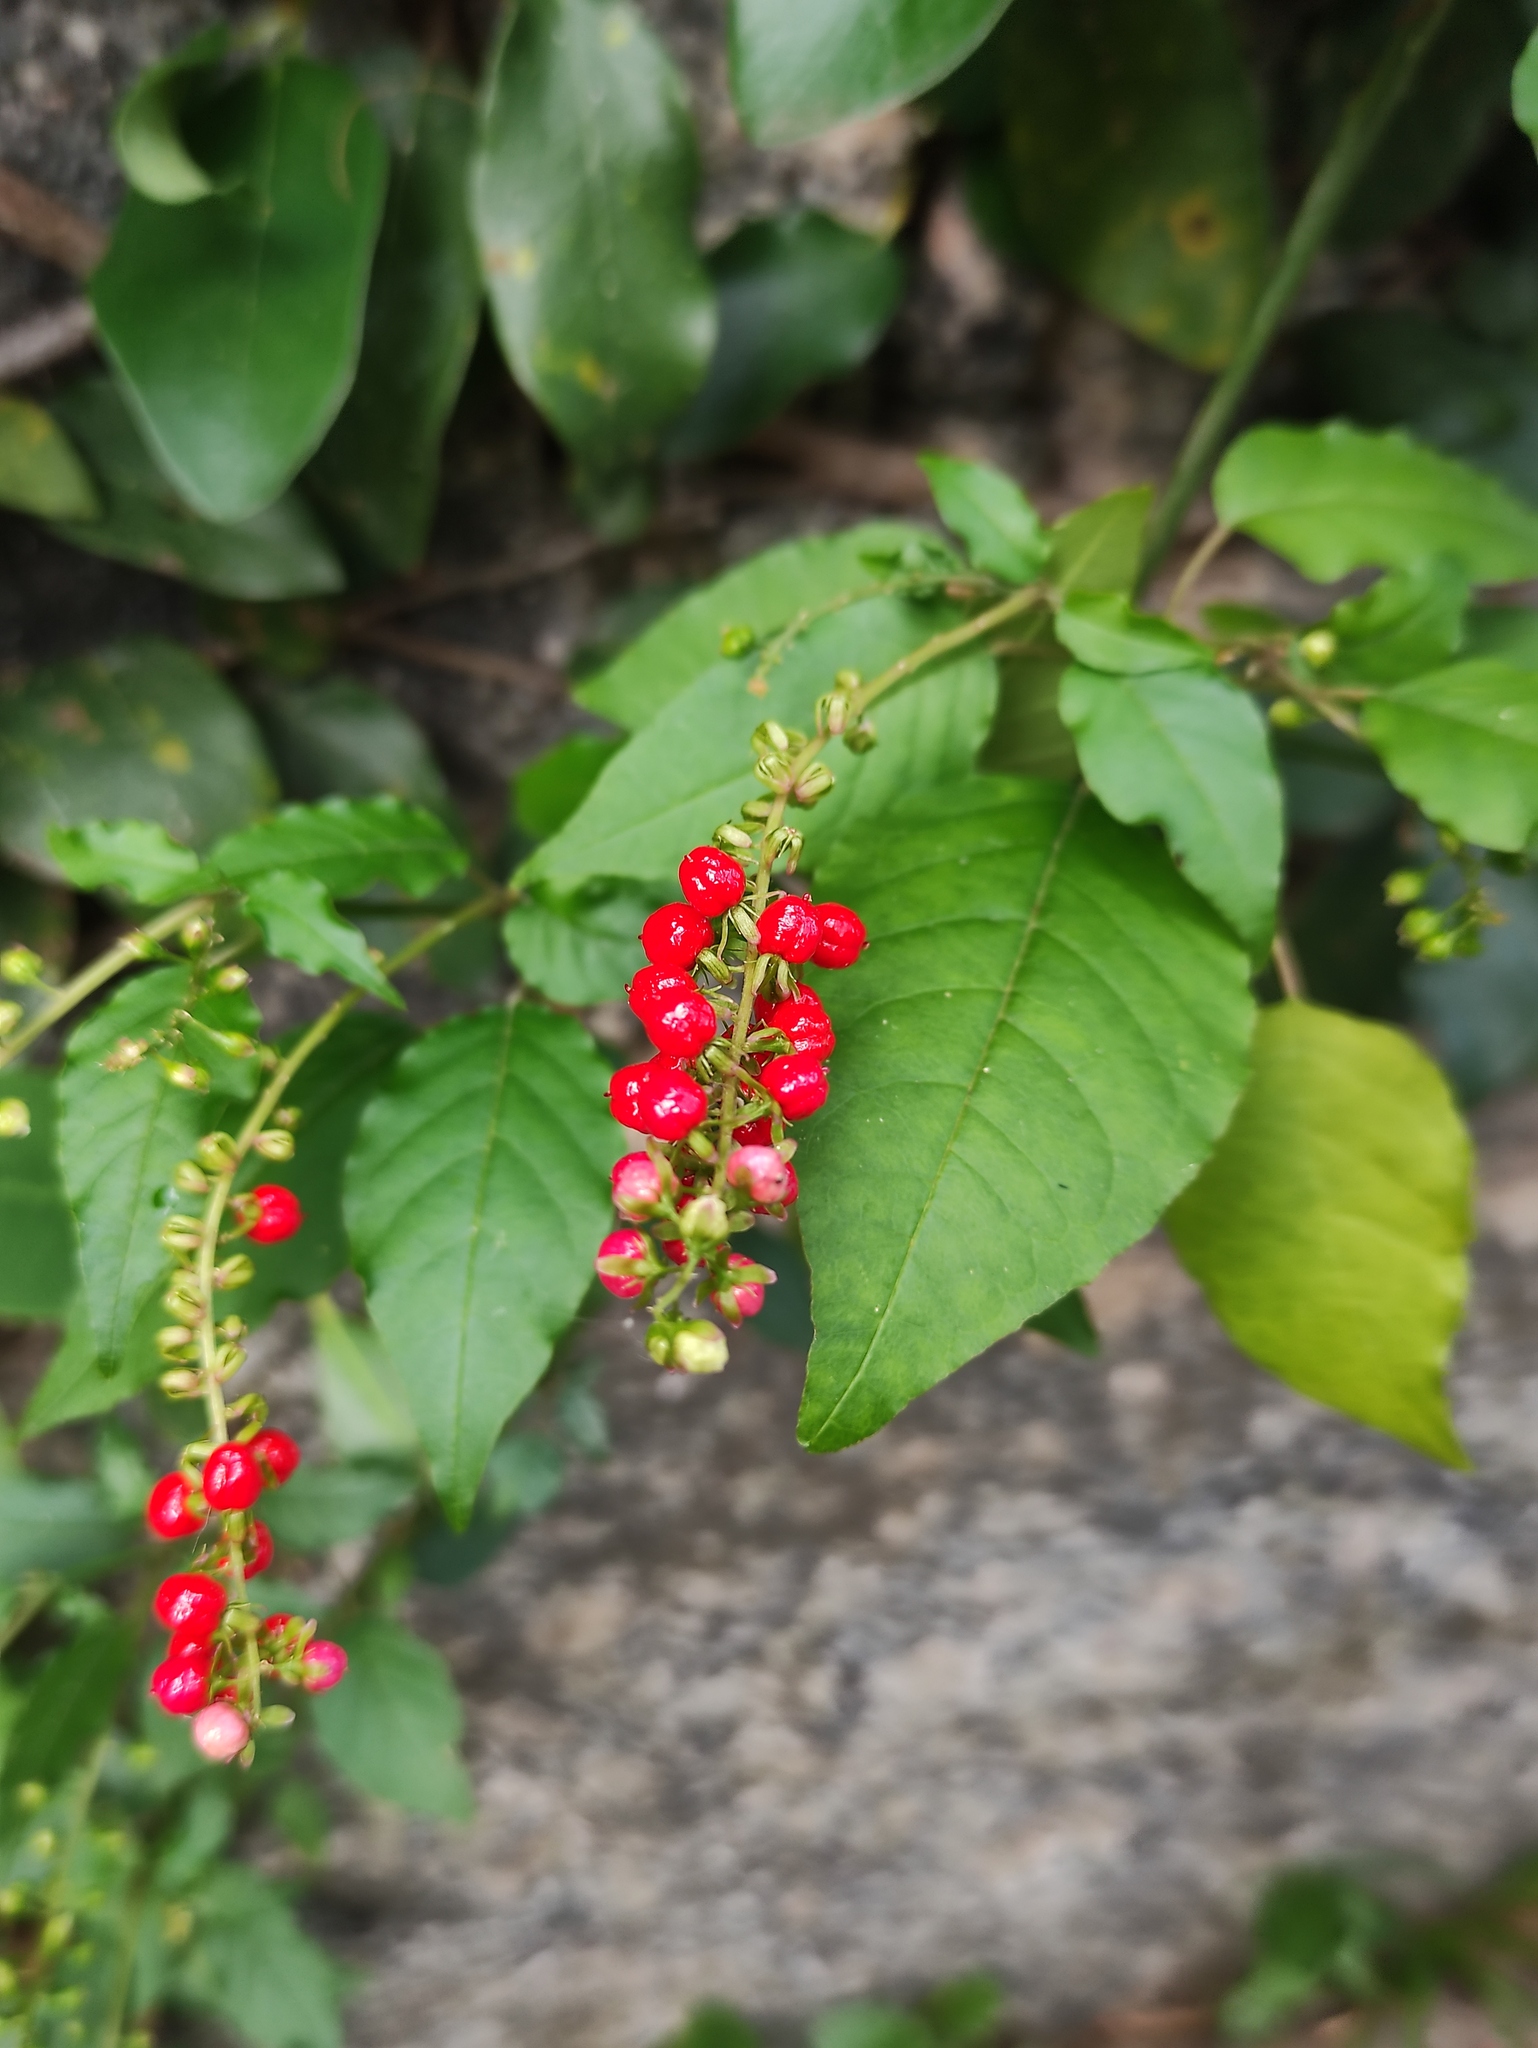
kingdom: Plantae
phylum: Tracheophyta
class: Magnoliopsida
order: Caryophyllales
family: Phytolaccaceae
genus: Rivina
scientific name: Rivina humilis
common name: Rougeplant
